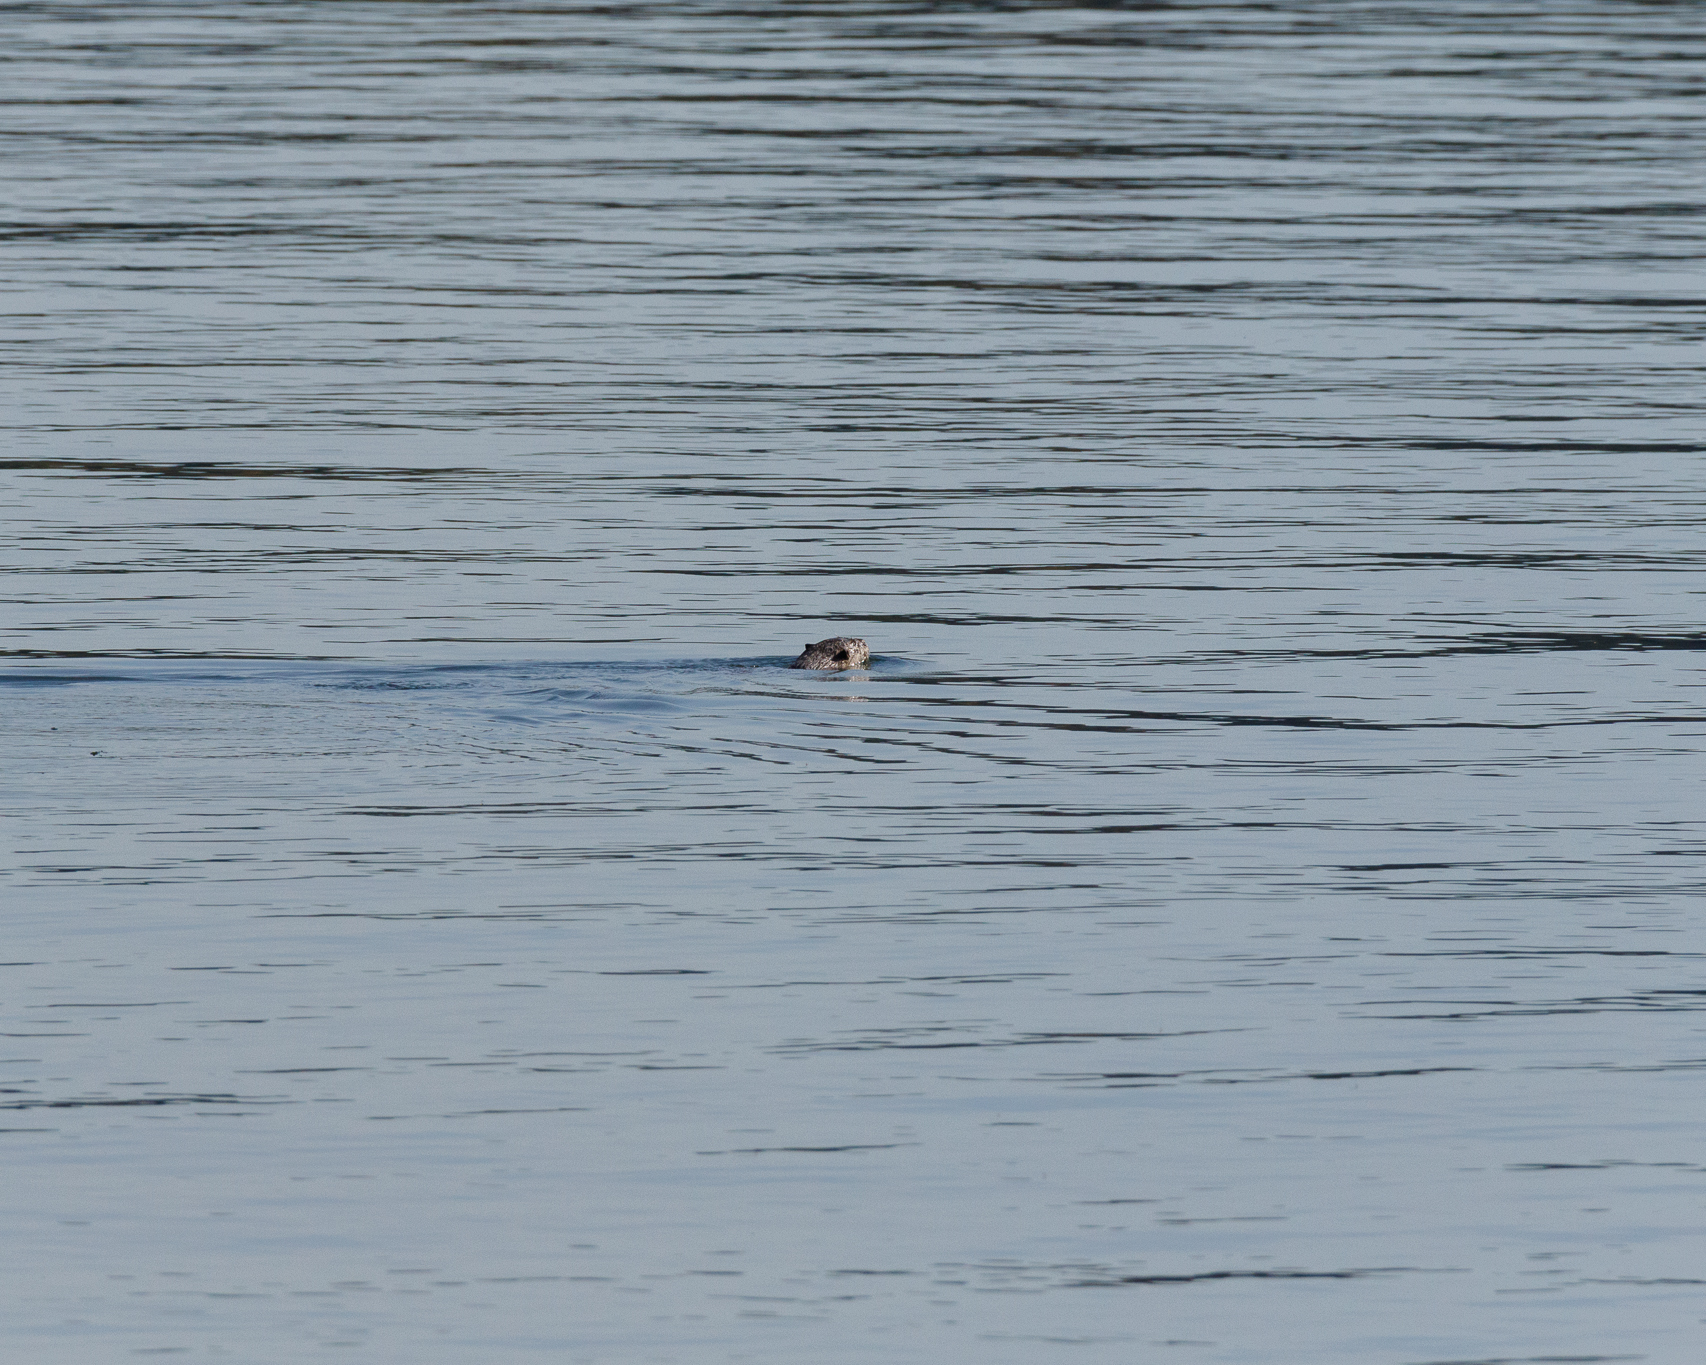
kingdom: Animalia
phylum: Chordata
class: Mammalia
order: Carnivora
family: Mustelidae
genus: Lontra
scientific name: Lontra canadensis
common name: North american river otter
